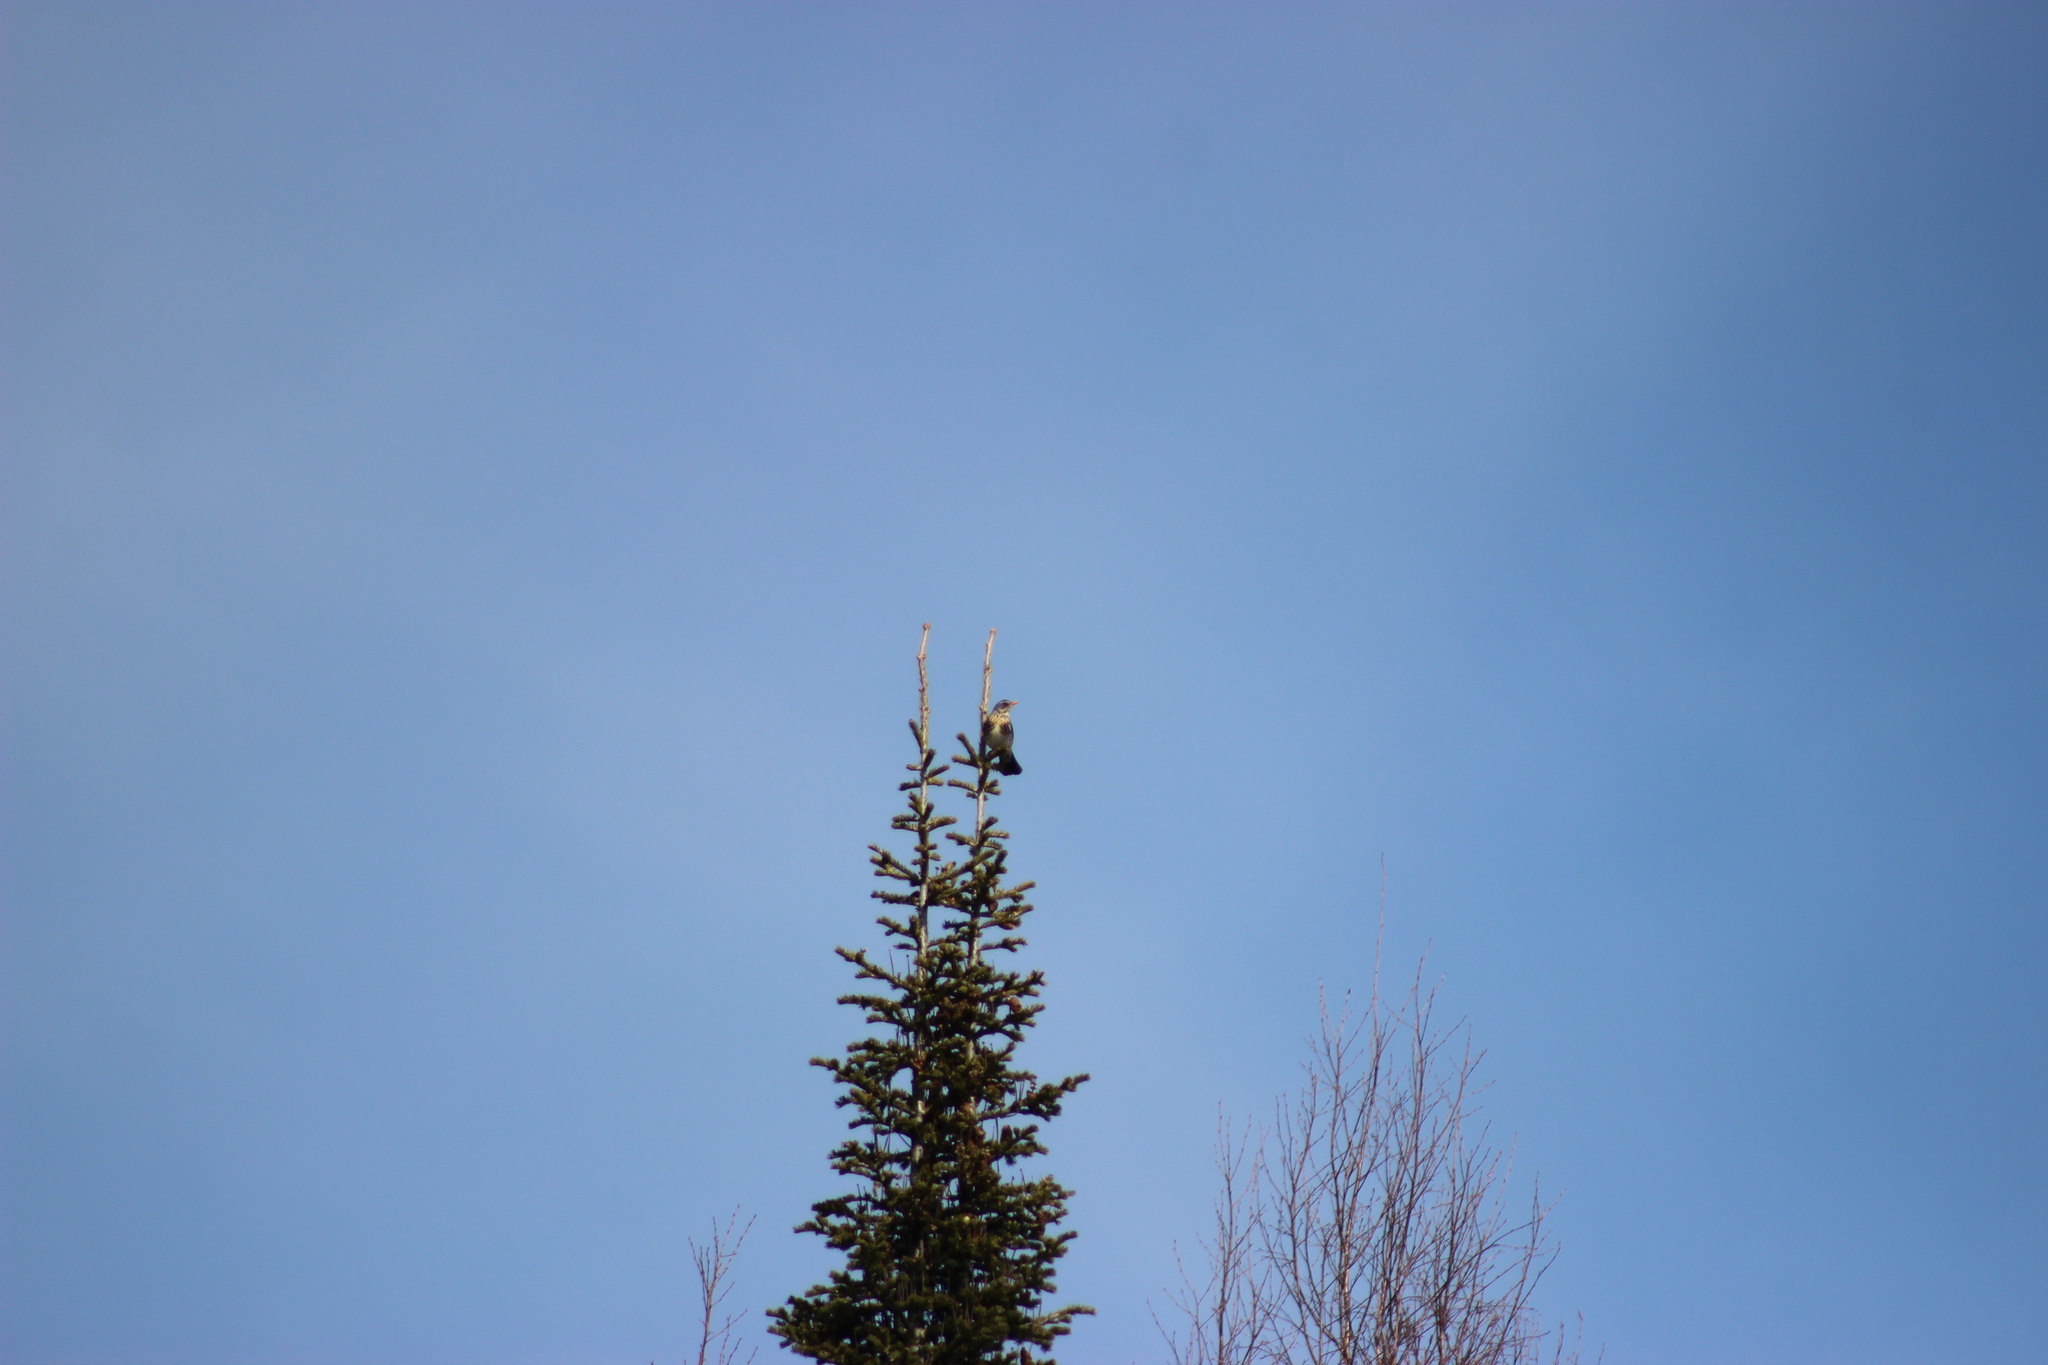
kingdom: Animalia
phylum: Chordata
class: Aves
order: Passeriformes
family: Turdidae
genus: Turdus
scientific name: Turdus pilaris
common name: Fieldfare
